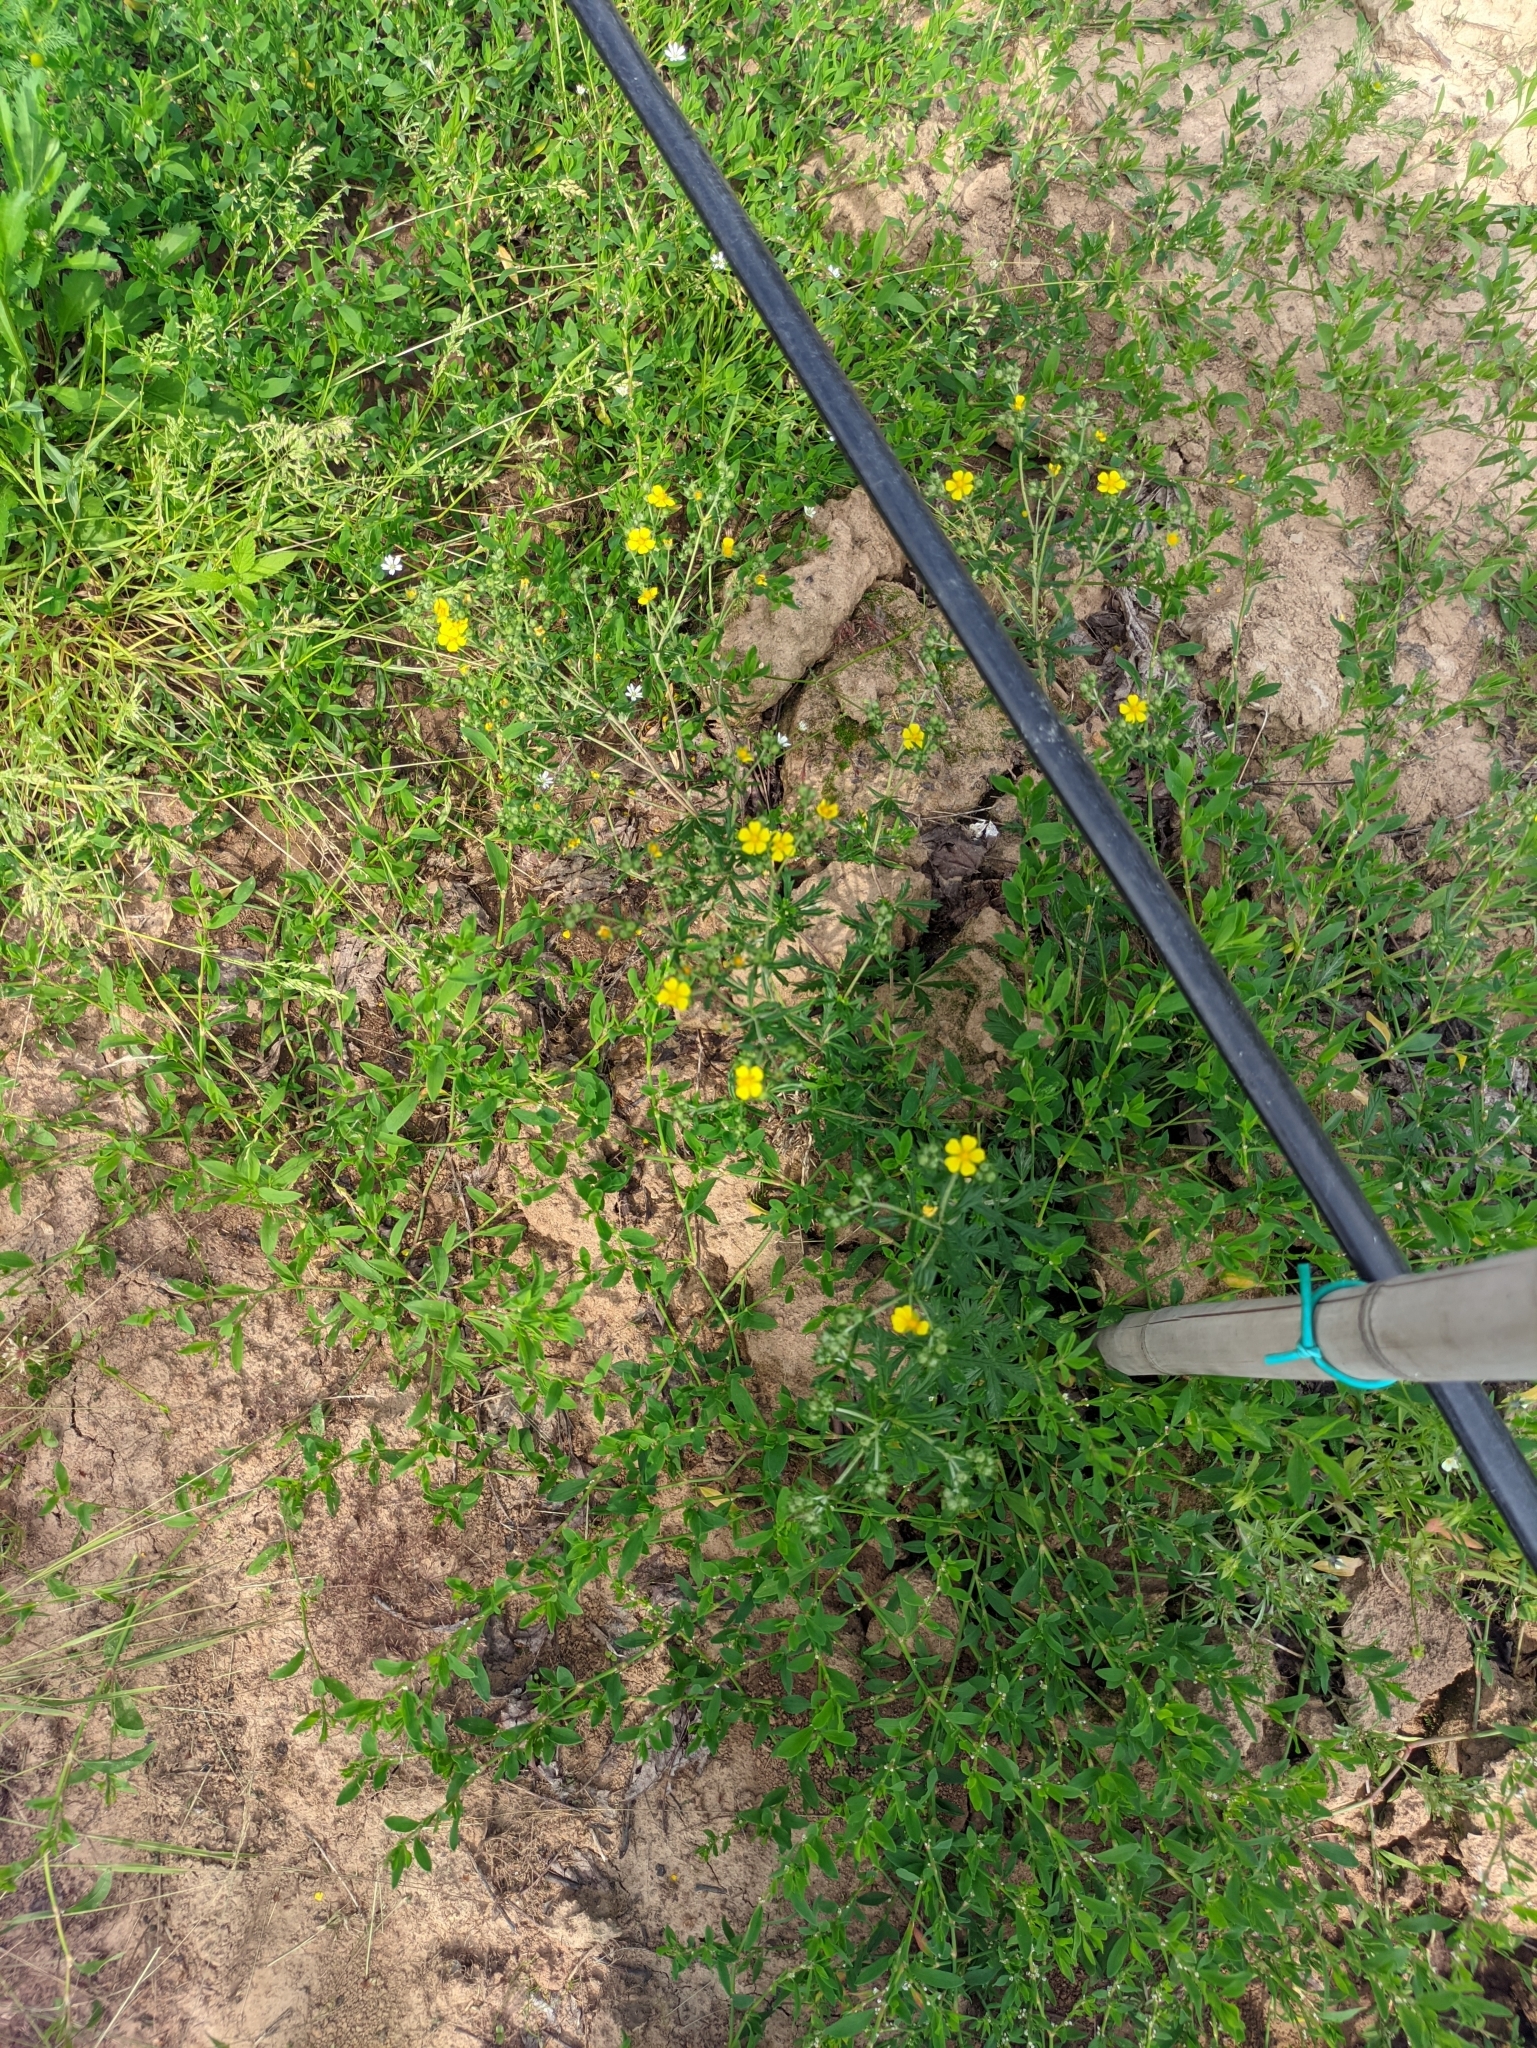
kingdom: Plantae
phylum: Tracheophyta
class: Magnoliopsida
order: Rosales
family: Rosaceae
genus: Potentilla
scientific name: Potentilla argentea
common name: Hoary cinquefoil
